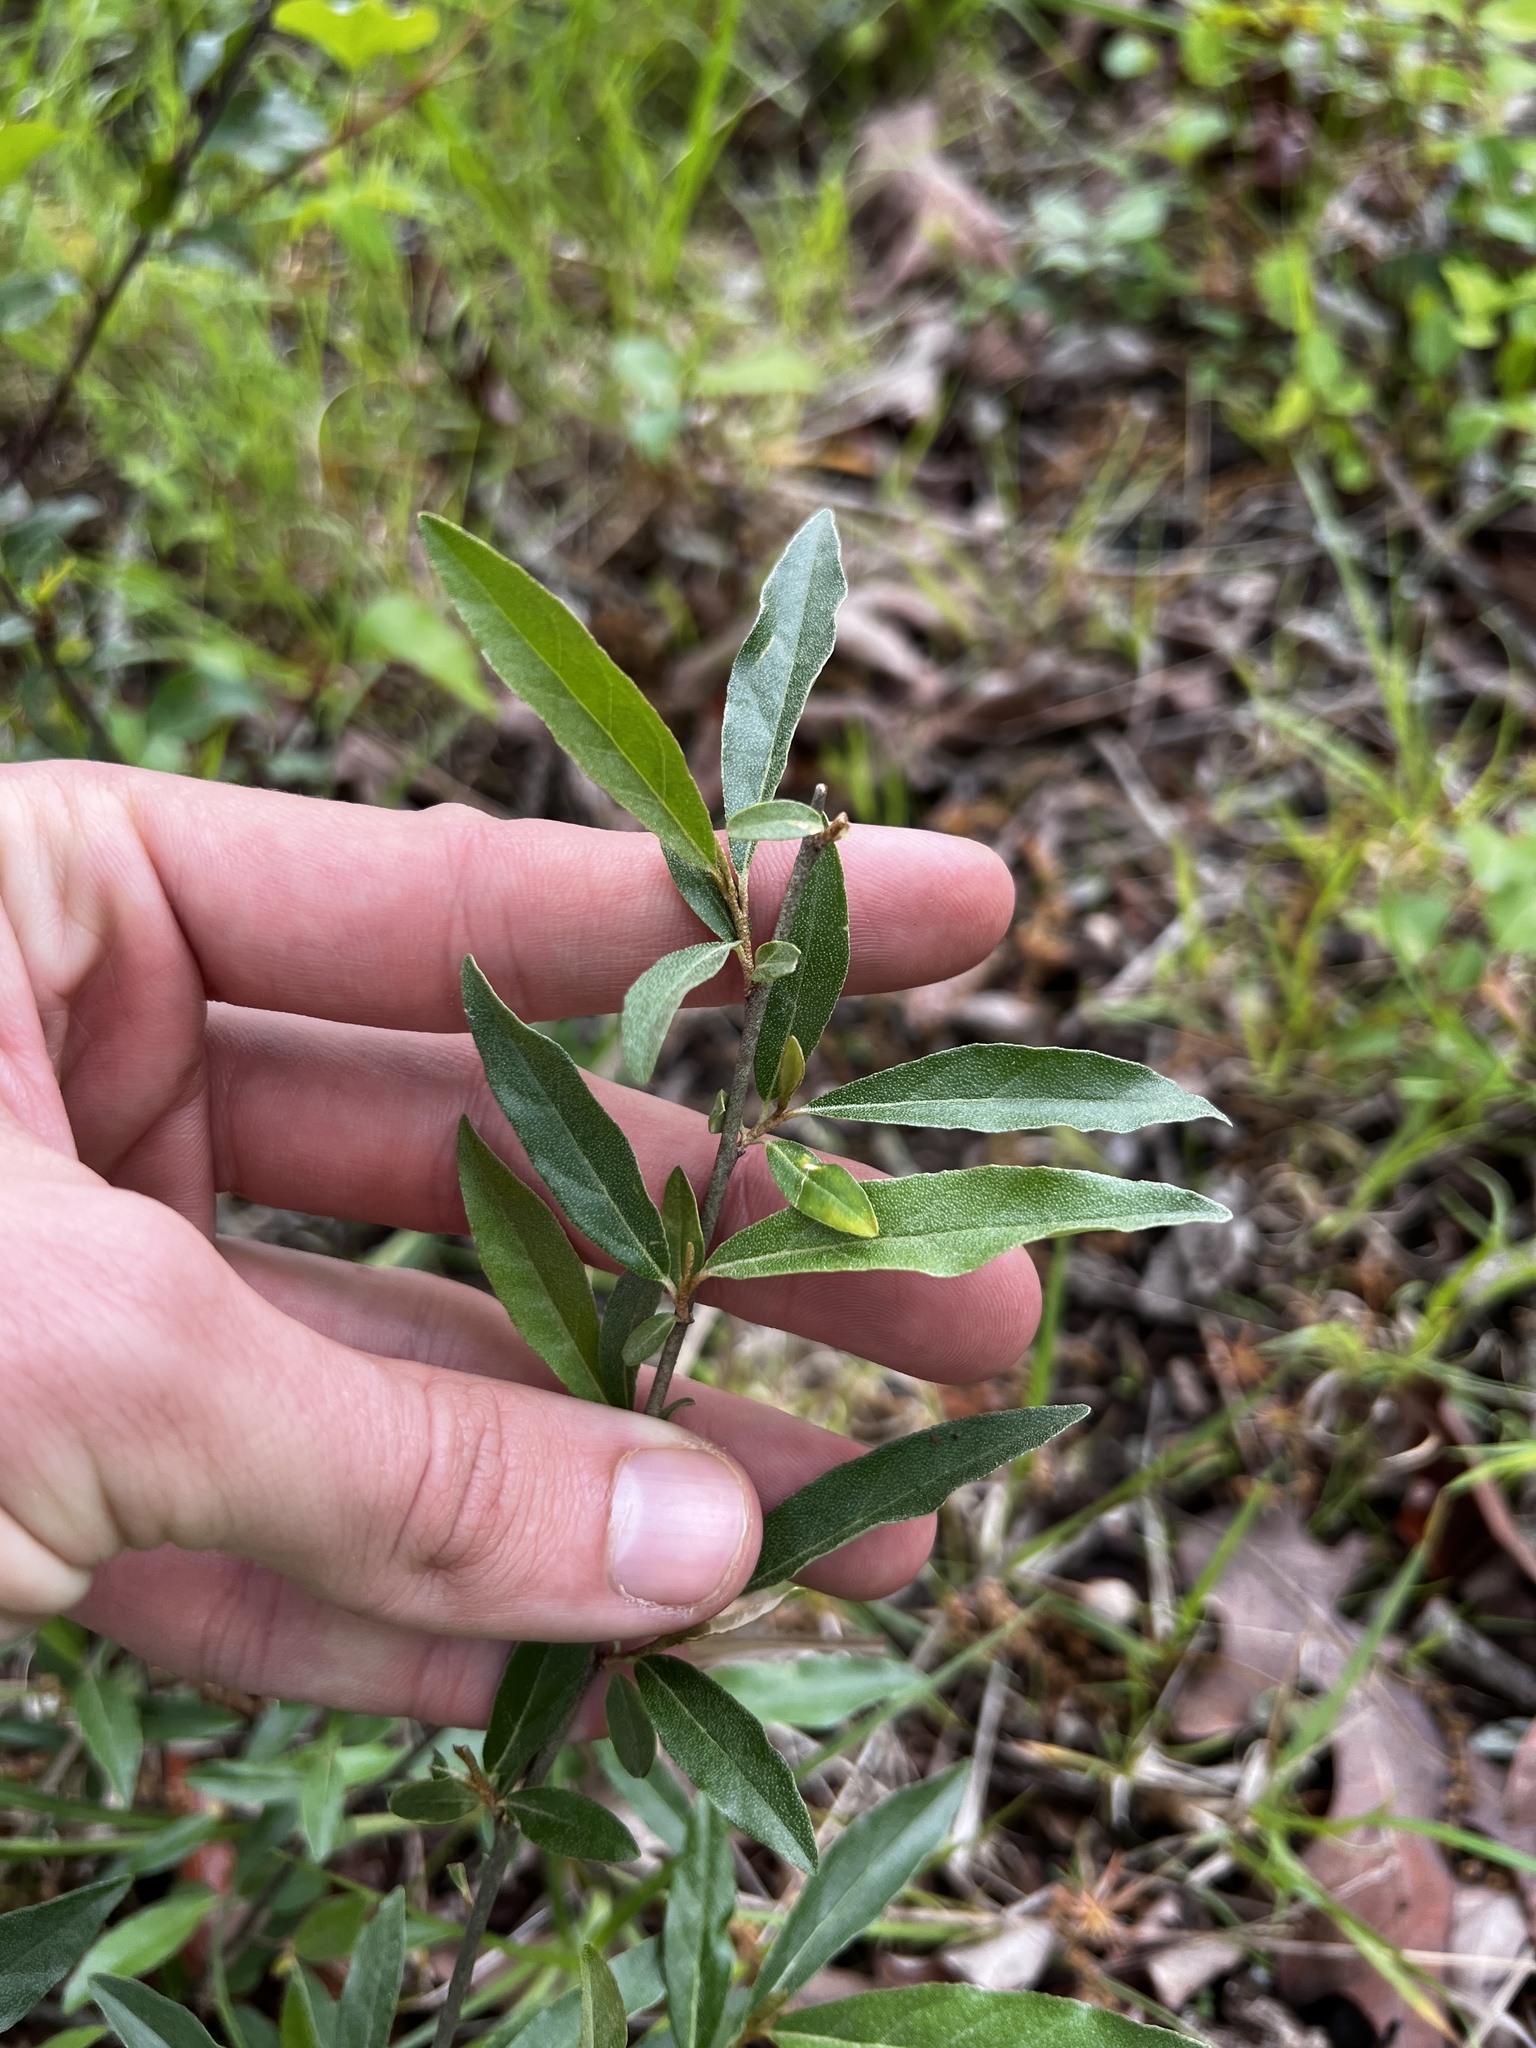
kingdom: Plantae
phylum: Tracheophyta
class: Magnoliopsida
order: Rosales
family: Elaeagnaceae
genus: Elaeagnus
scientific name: Elaeagnus umbellata
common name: Autumn olive
